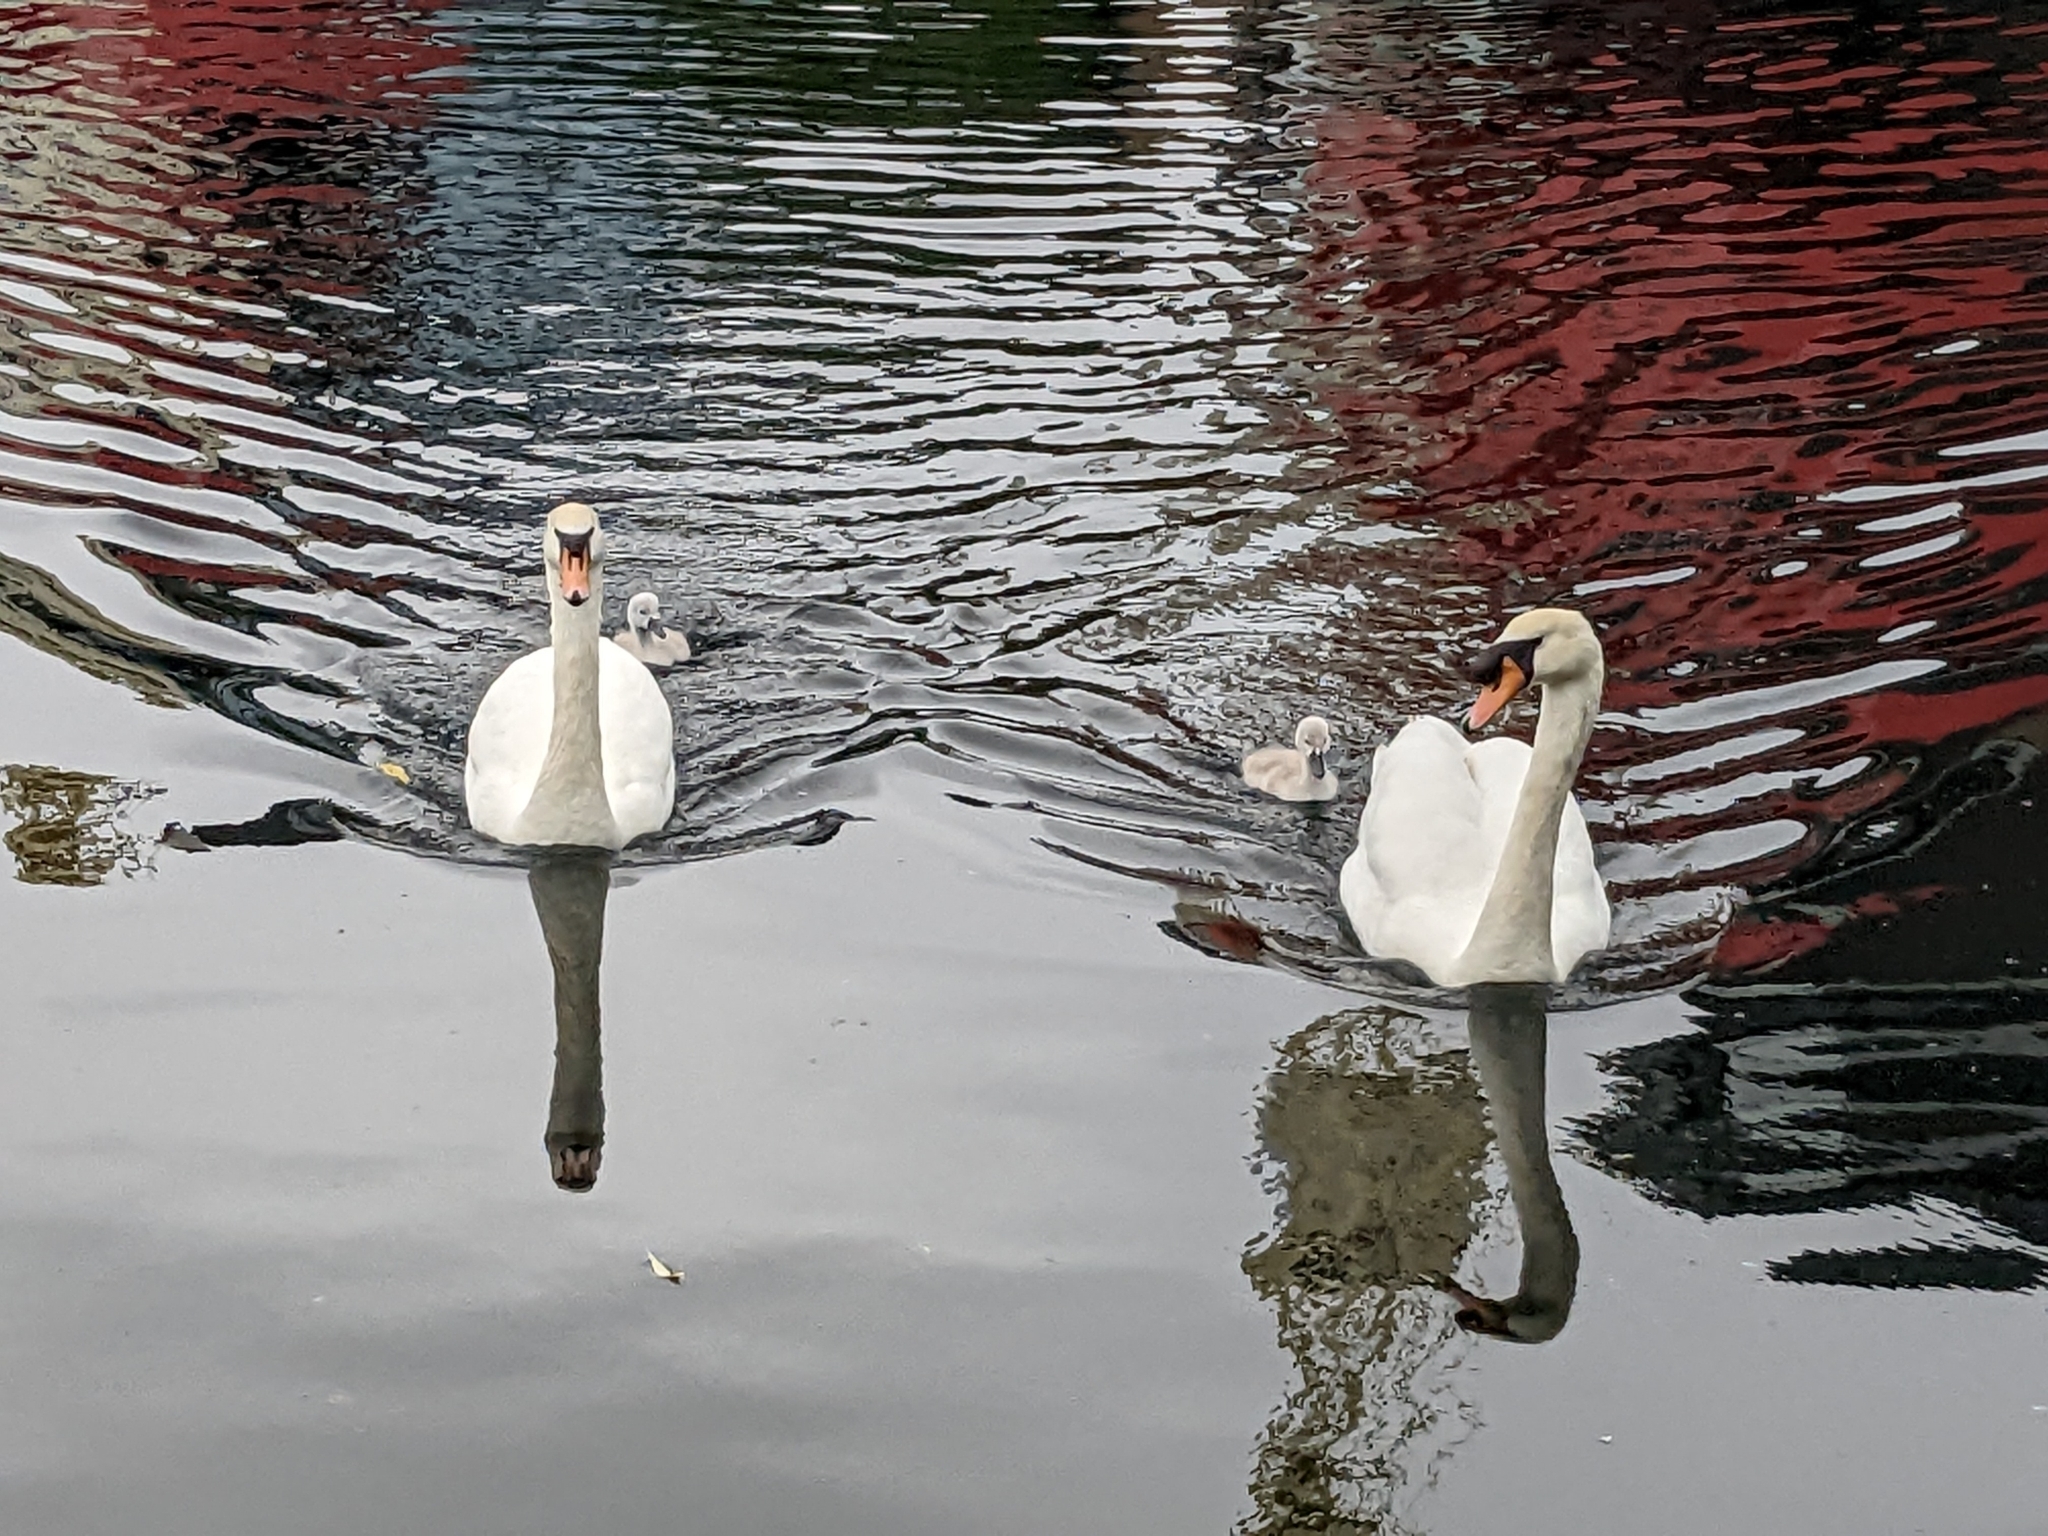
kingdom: Animalia
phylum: Chordata
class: Aves
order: Anseriformes
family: Anatidae
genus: Cygnus
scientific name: Cygnus olor
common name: Mute swan
